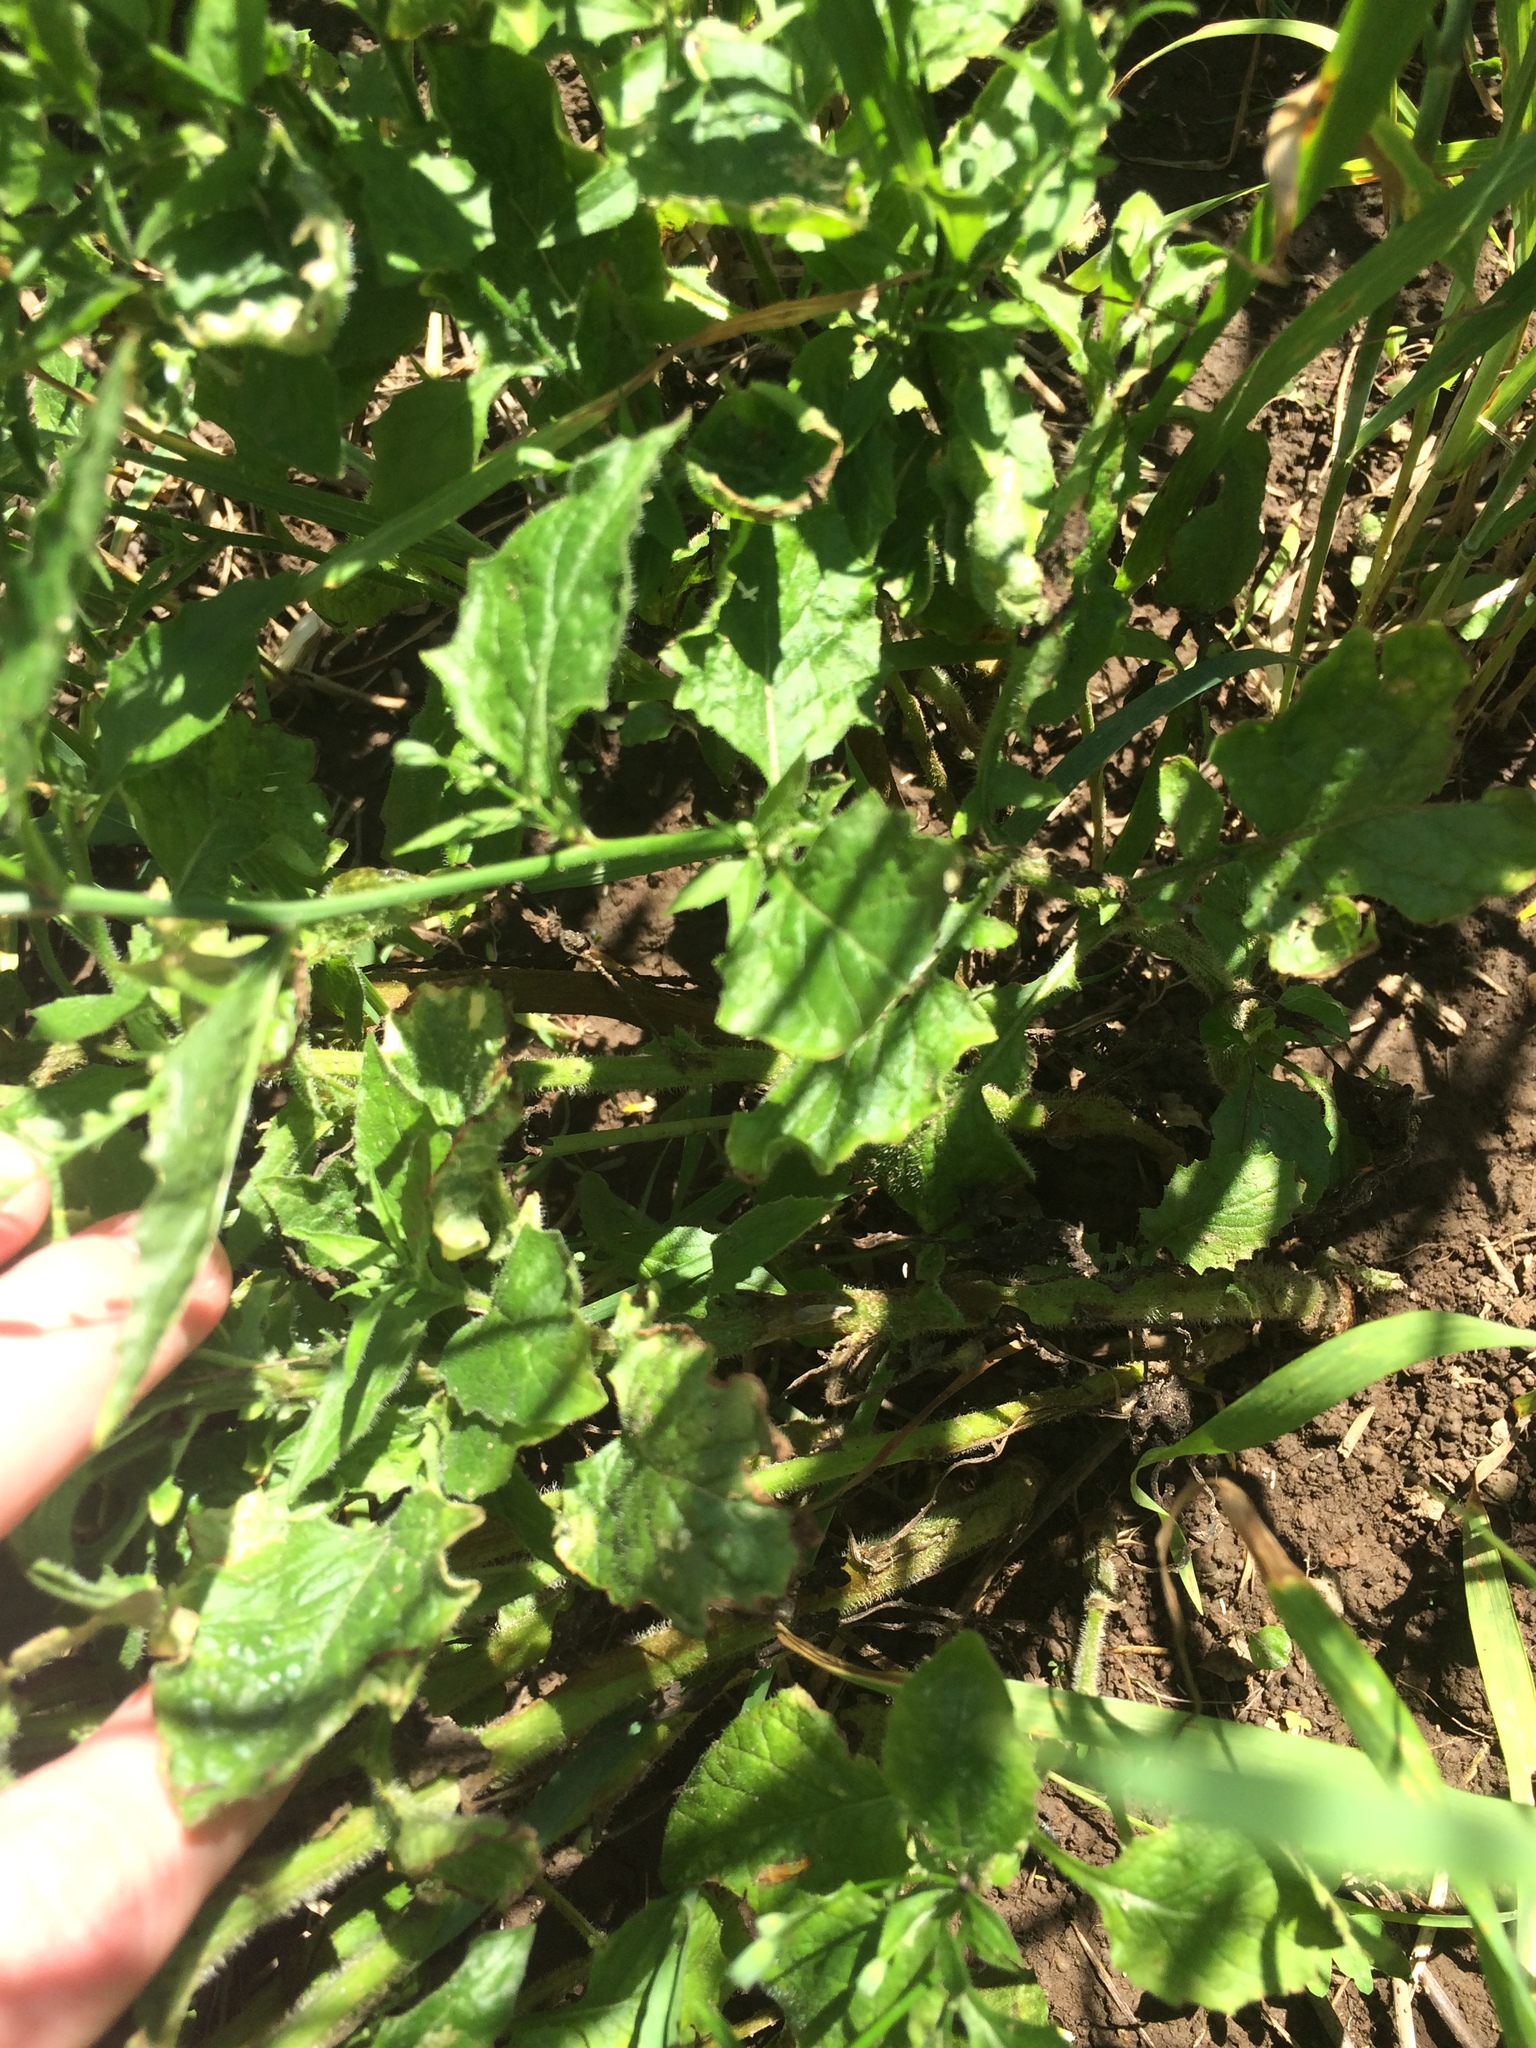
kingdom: Plantae
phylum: Tracheophyta
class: Magnoliopsida
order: Asterales
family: Asteraceae
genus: Lapsana
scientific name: Lapsana communis
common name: Nipplewort
